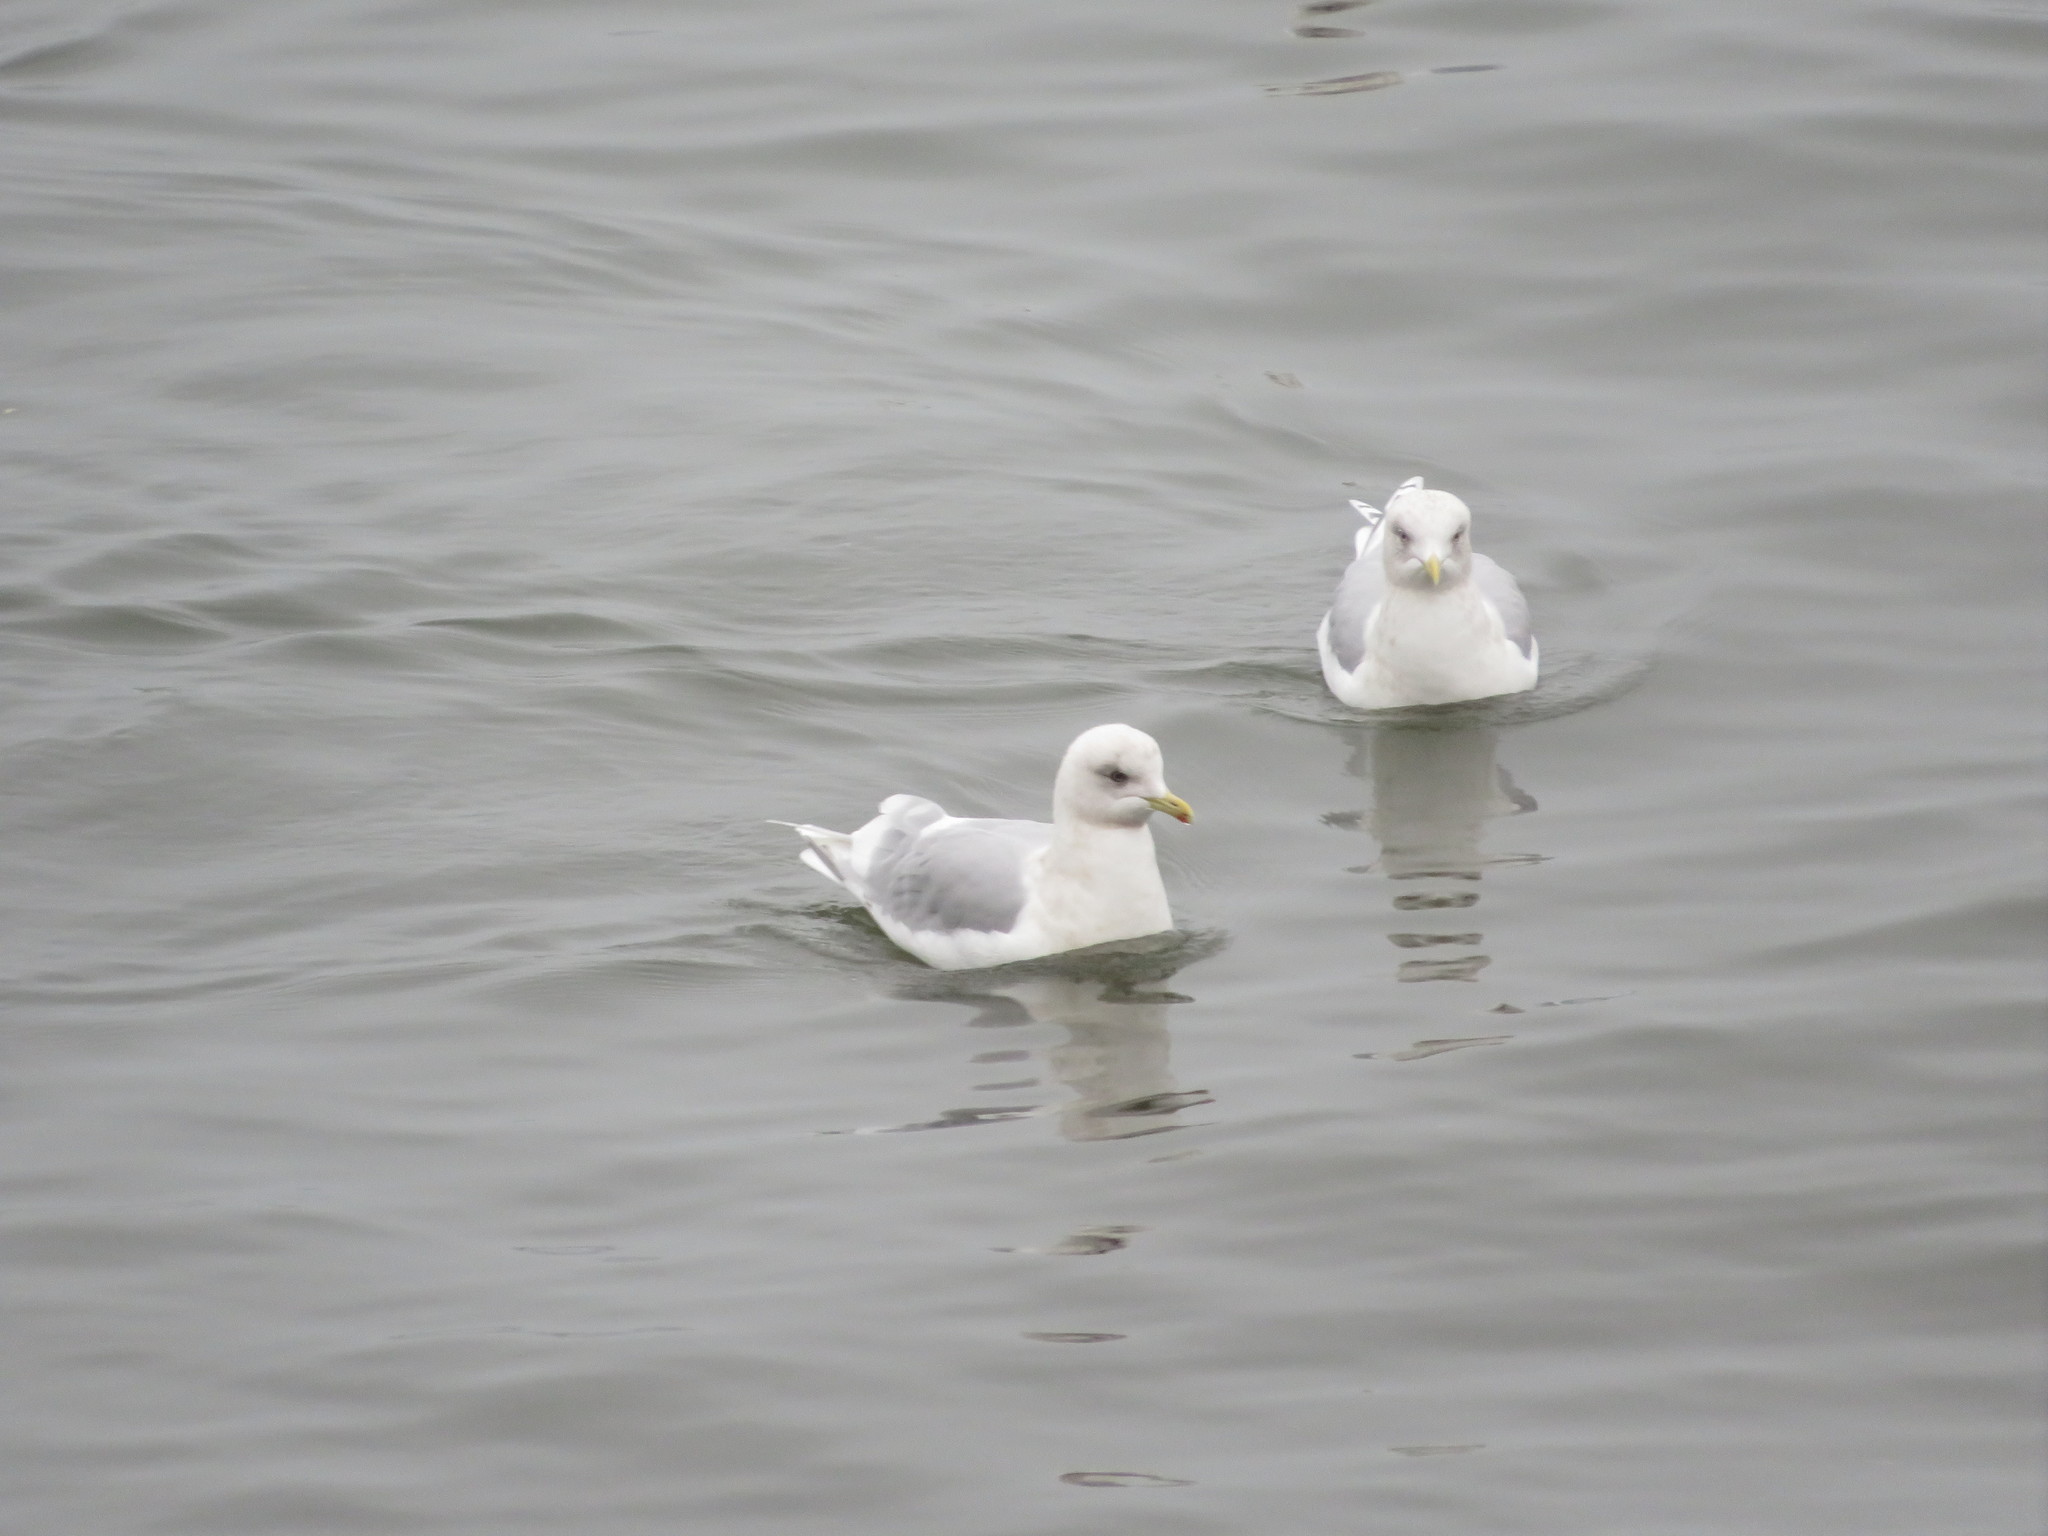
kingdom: Animalia
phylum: Chordata
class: Aves
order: Charadriiformes
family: Laridae
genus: Larus
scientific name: Larus glaucoides
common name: Iceland gull
